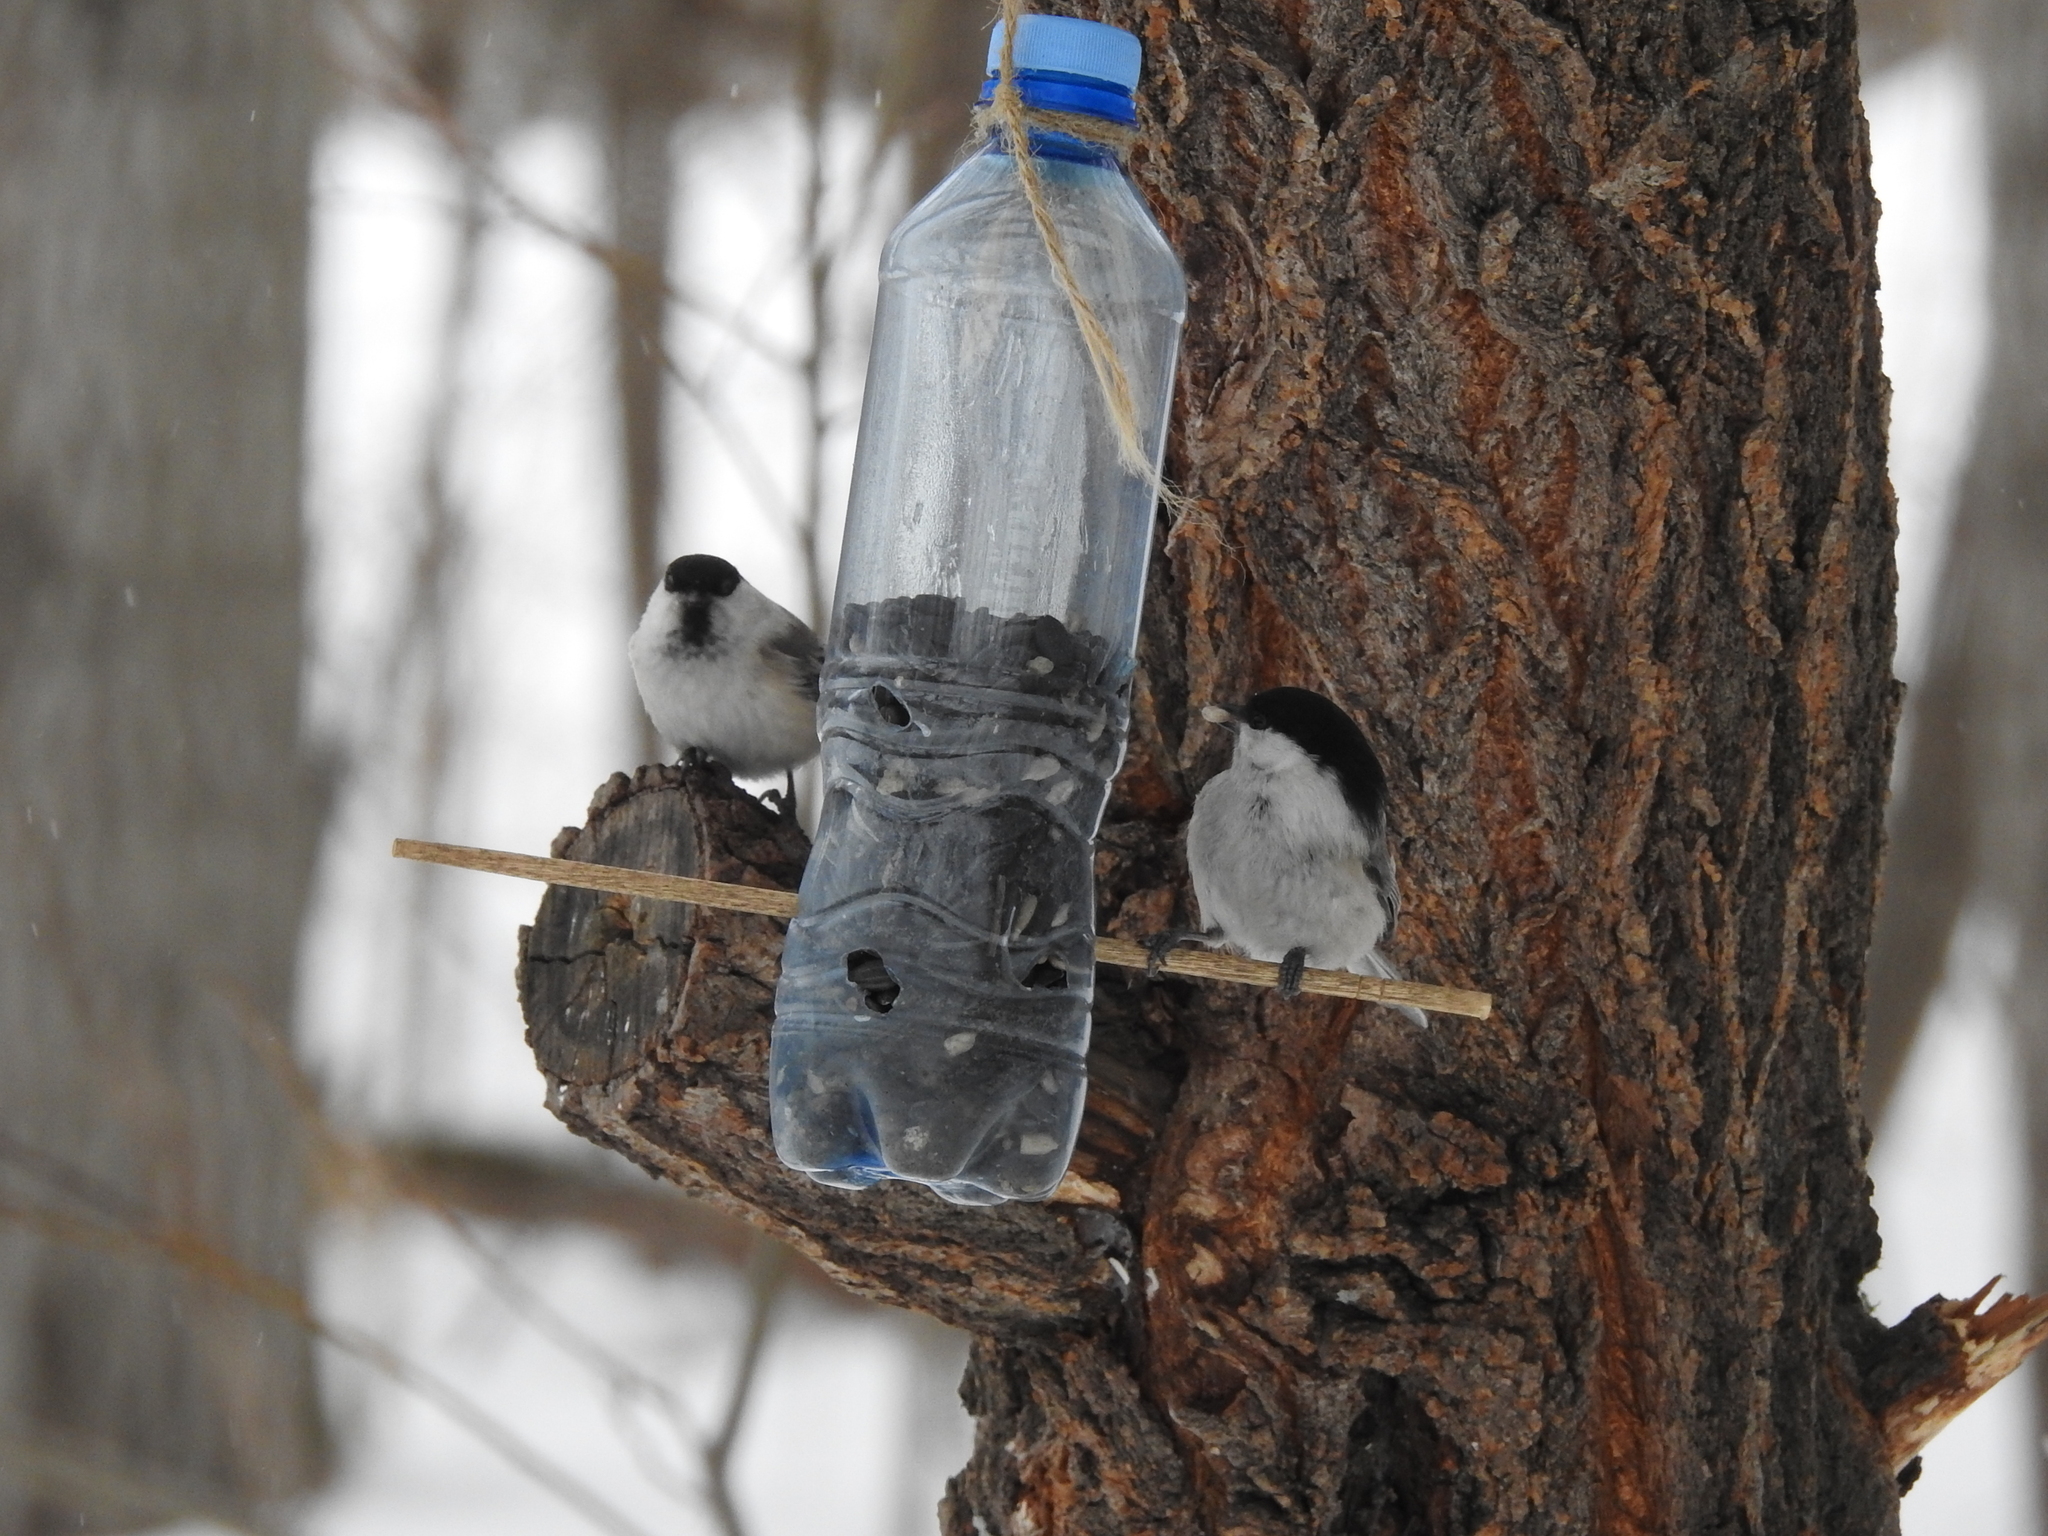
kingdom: Animalia
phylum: Chordata
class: Aves
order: Passeriformes
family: Paridae
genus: Poecile
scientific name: Poecile montanus
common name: Willow tit
